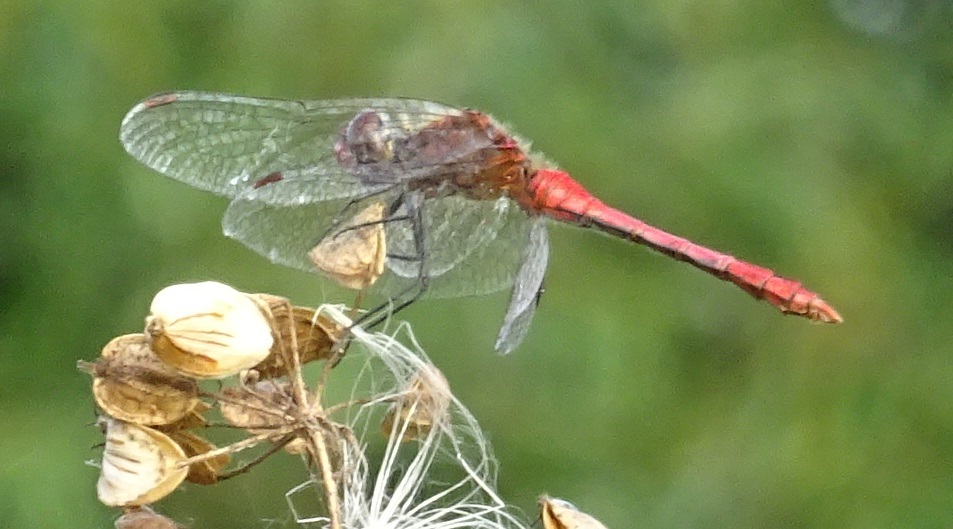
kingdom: Animalia
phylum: Arthropoda
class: Insecta
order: Odonata
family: Libellulidae
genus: Sympetrum
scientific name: Sympetrum sanguineum
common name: Ruddy darter
